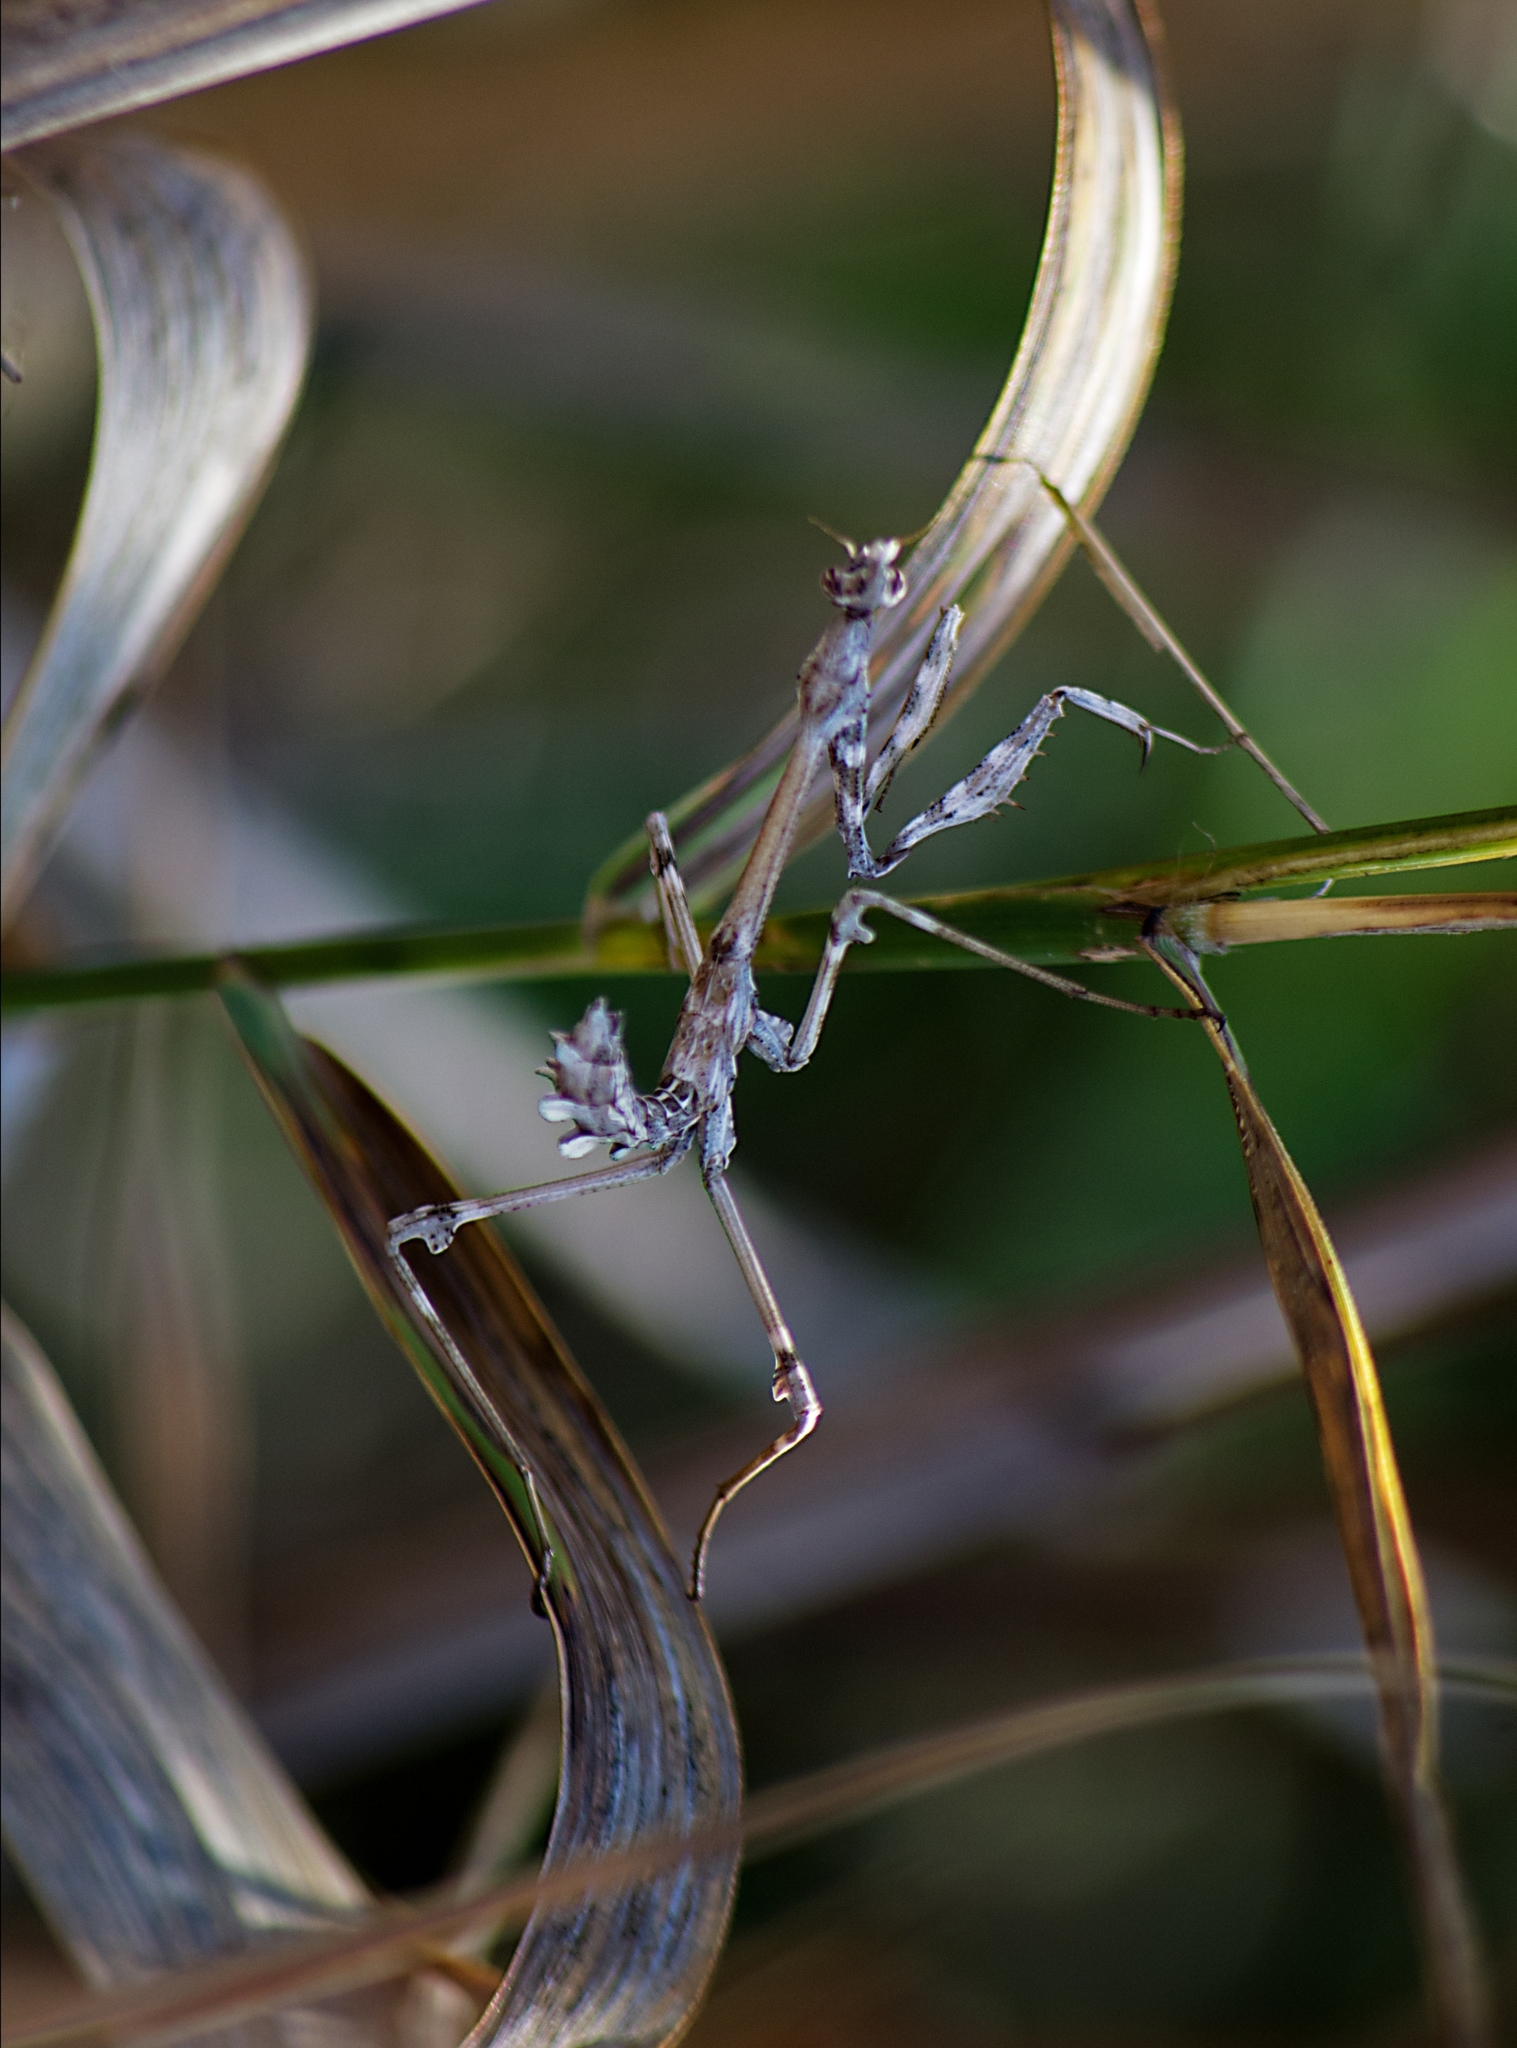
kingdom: Animalia
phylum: Arthropoda
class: Insecta
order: Mantodea
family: Empusidae
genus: Empusa
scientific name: Empusa fasciata
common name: Devil's mare
